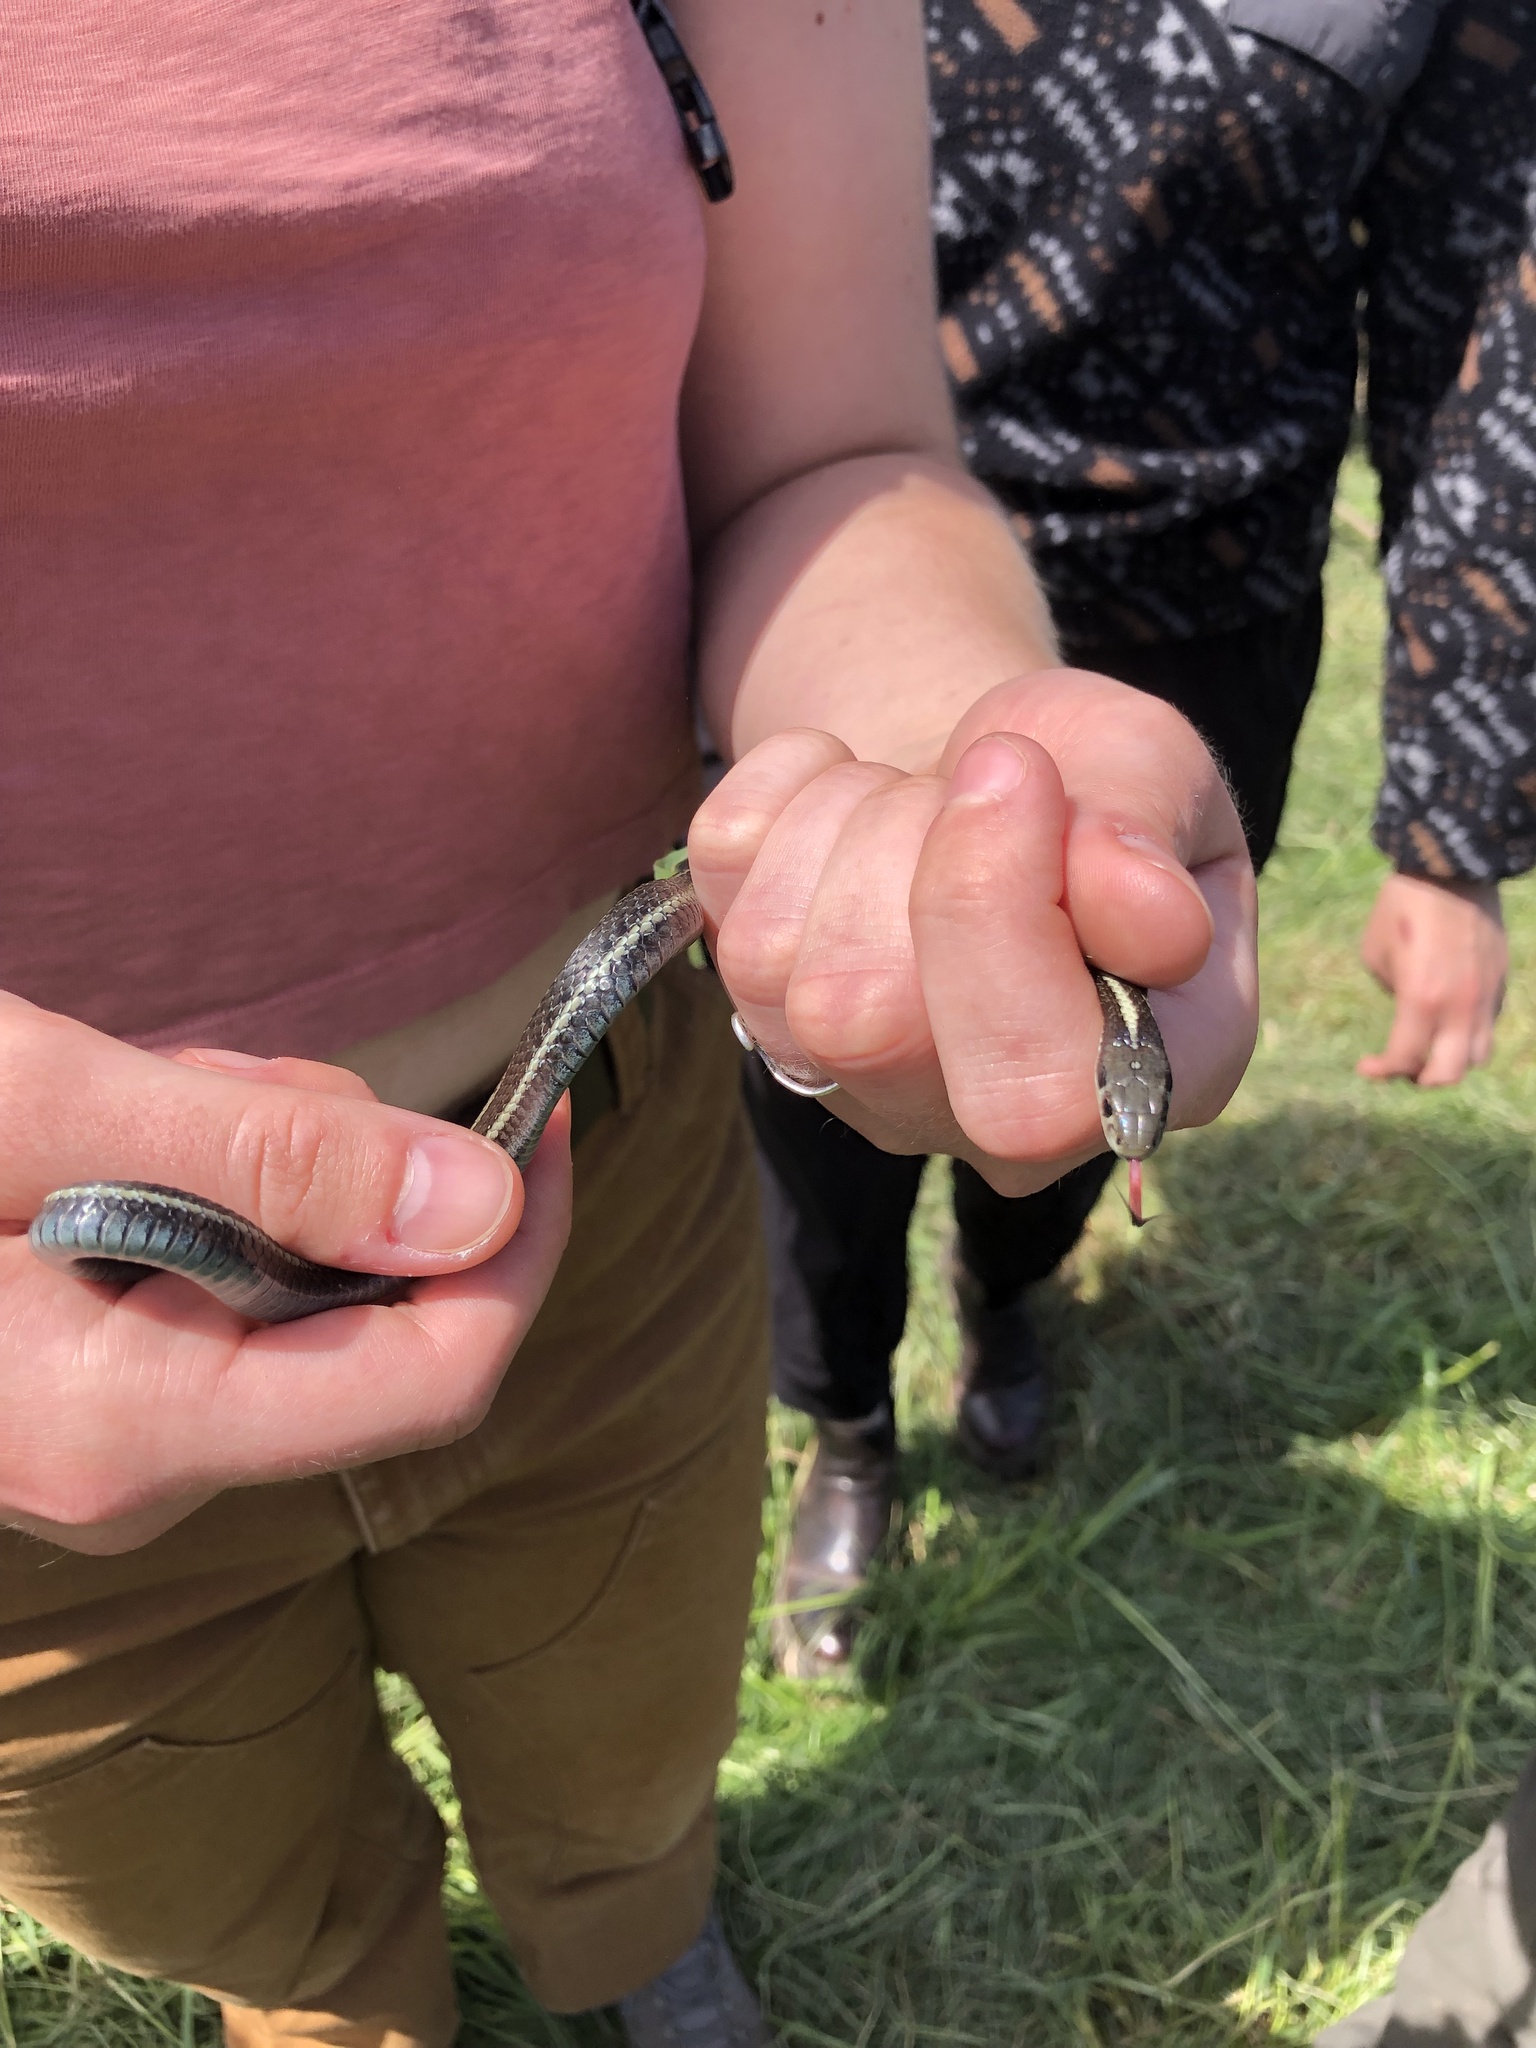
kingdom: Animalia
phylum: Chordata
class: Squamata
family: Colubridae
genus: Thamnophis
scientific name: Thamnophis ordinoides
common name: Northwestern garter snake
